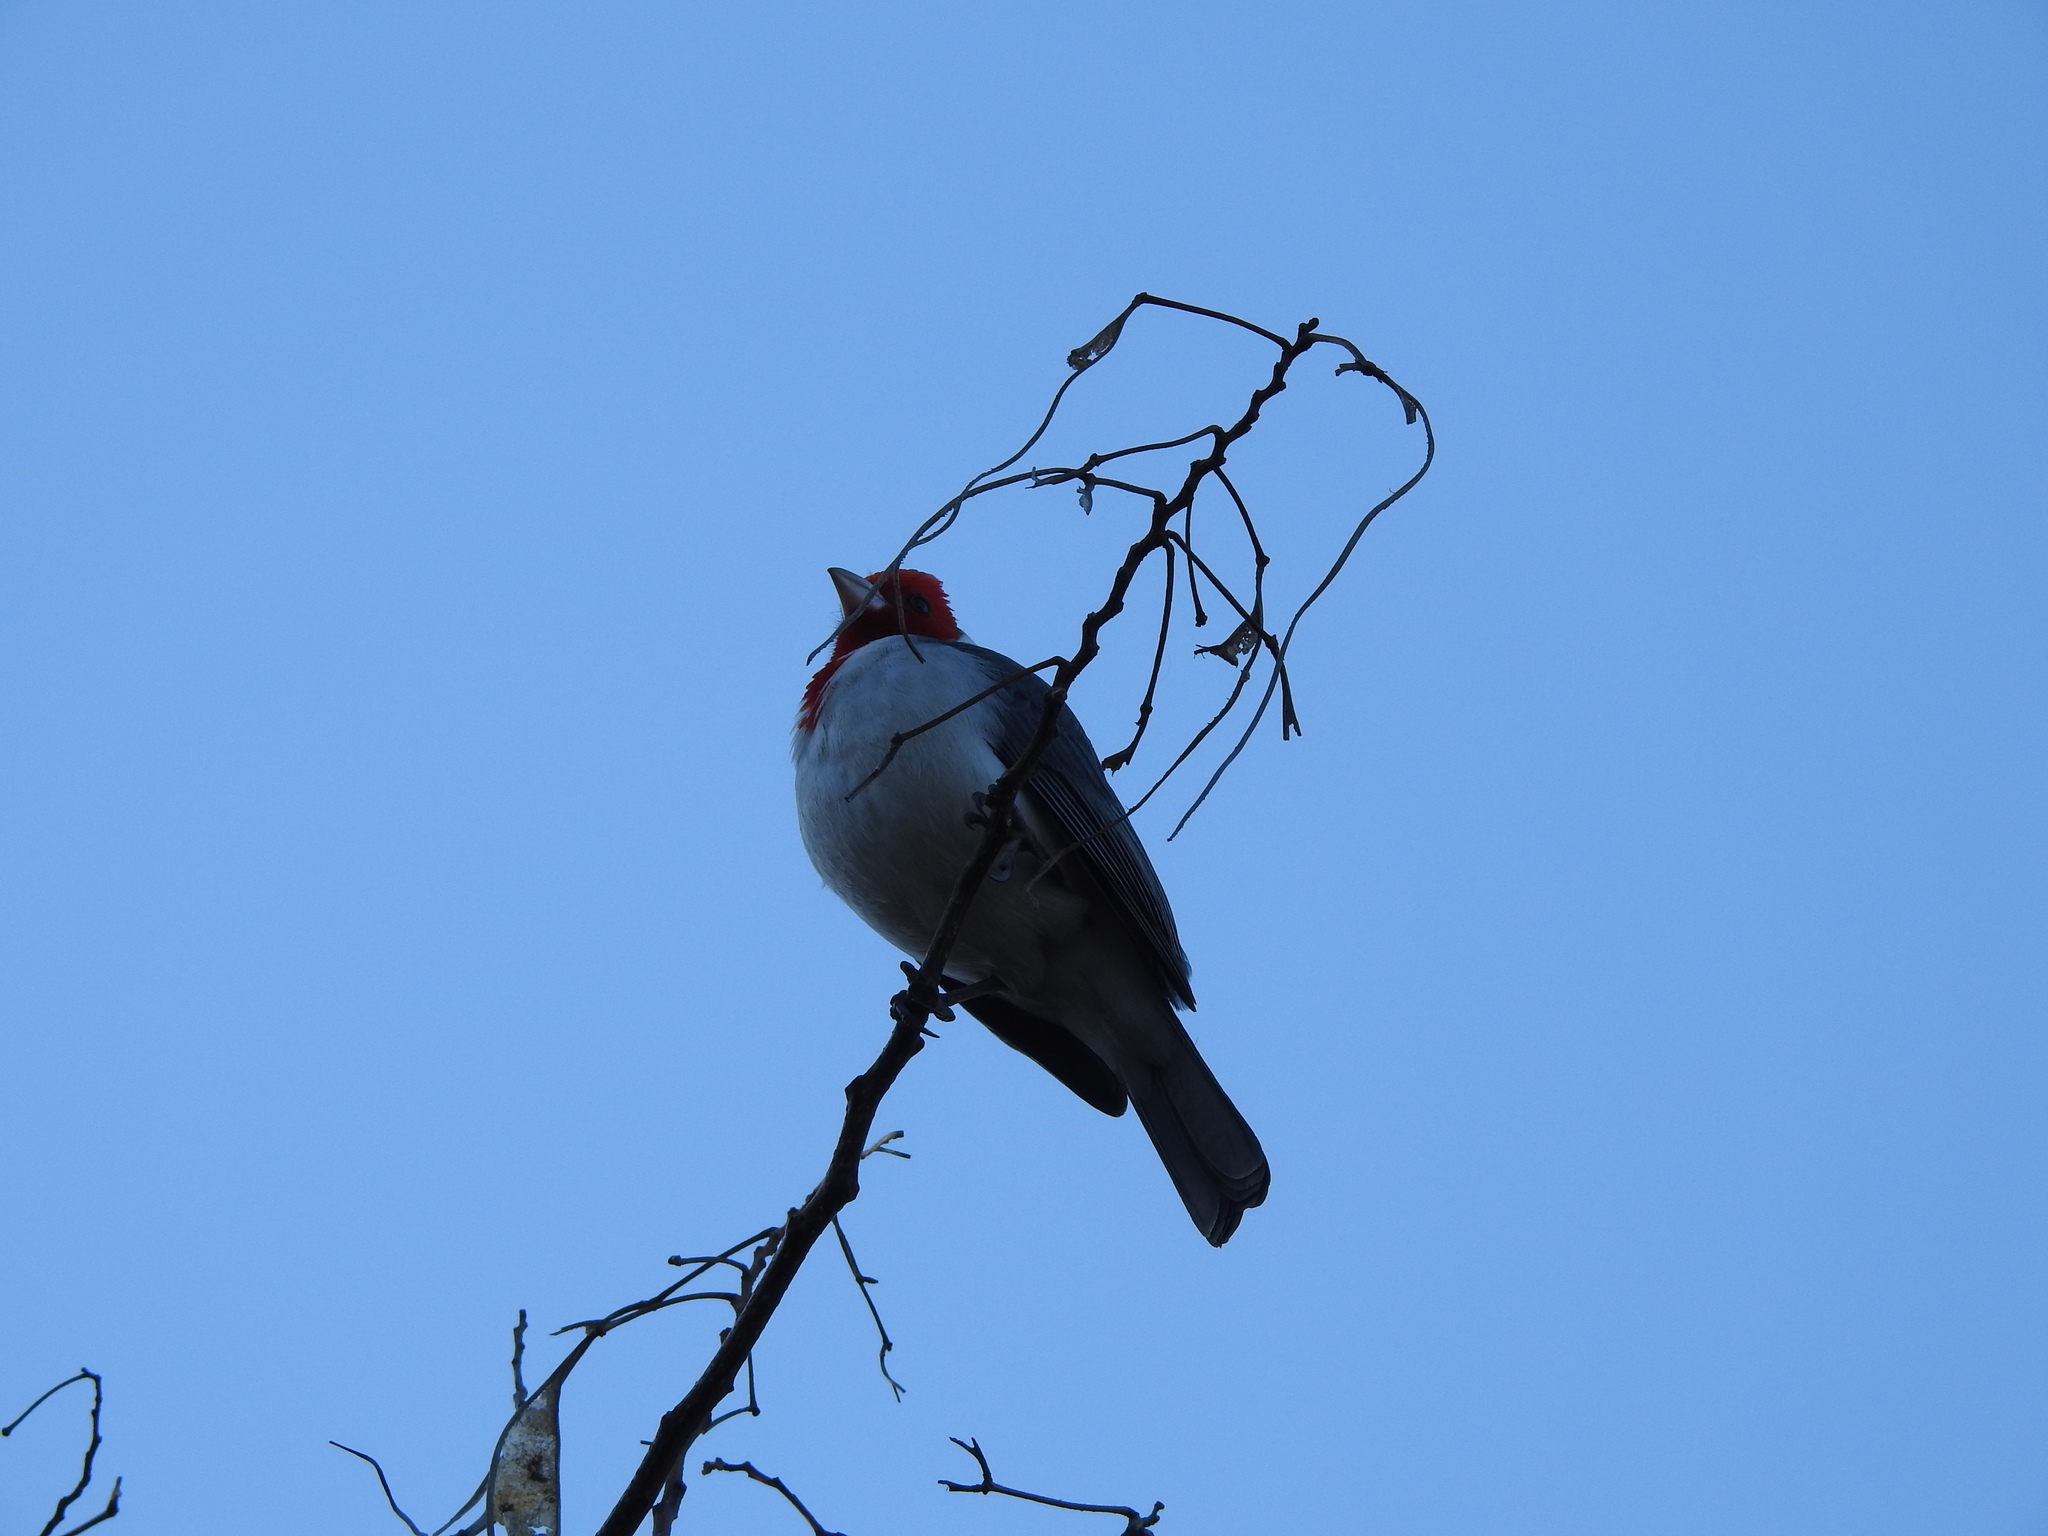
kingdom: Animalia
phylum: Chordata
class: Aves
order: Passeriformes
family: Thraupidae
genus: Paroaria
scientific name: Paroaria coronata
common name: Red-crested cardinal
